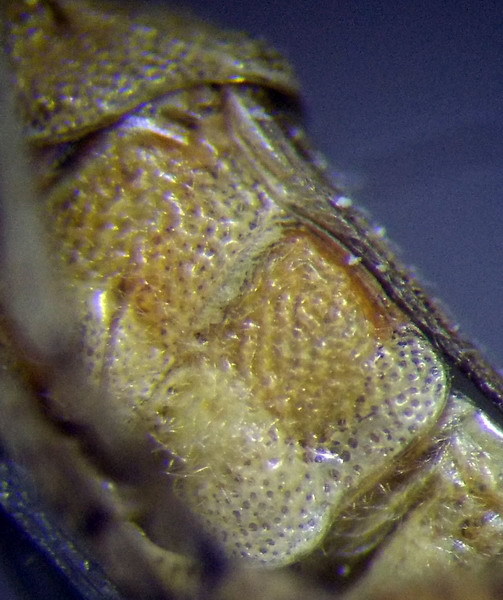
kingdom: Animalia
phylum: Arthropoda
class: Insecta
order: Hemiptera
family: Rhopalidae
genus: Stictopleurus
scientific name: Stictopleurus punctatonervosus
